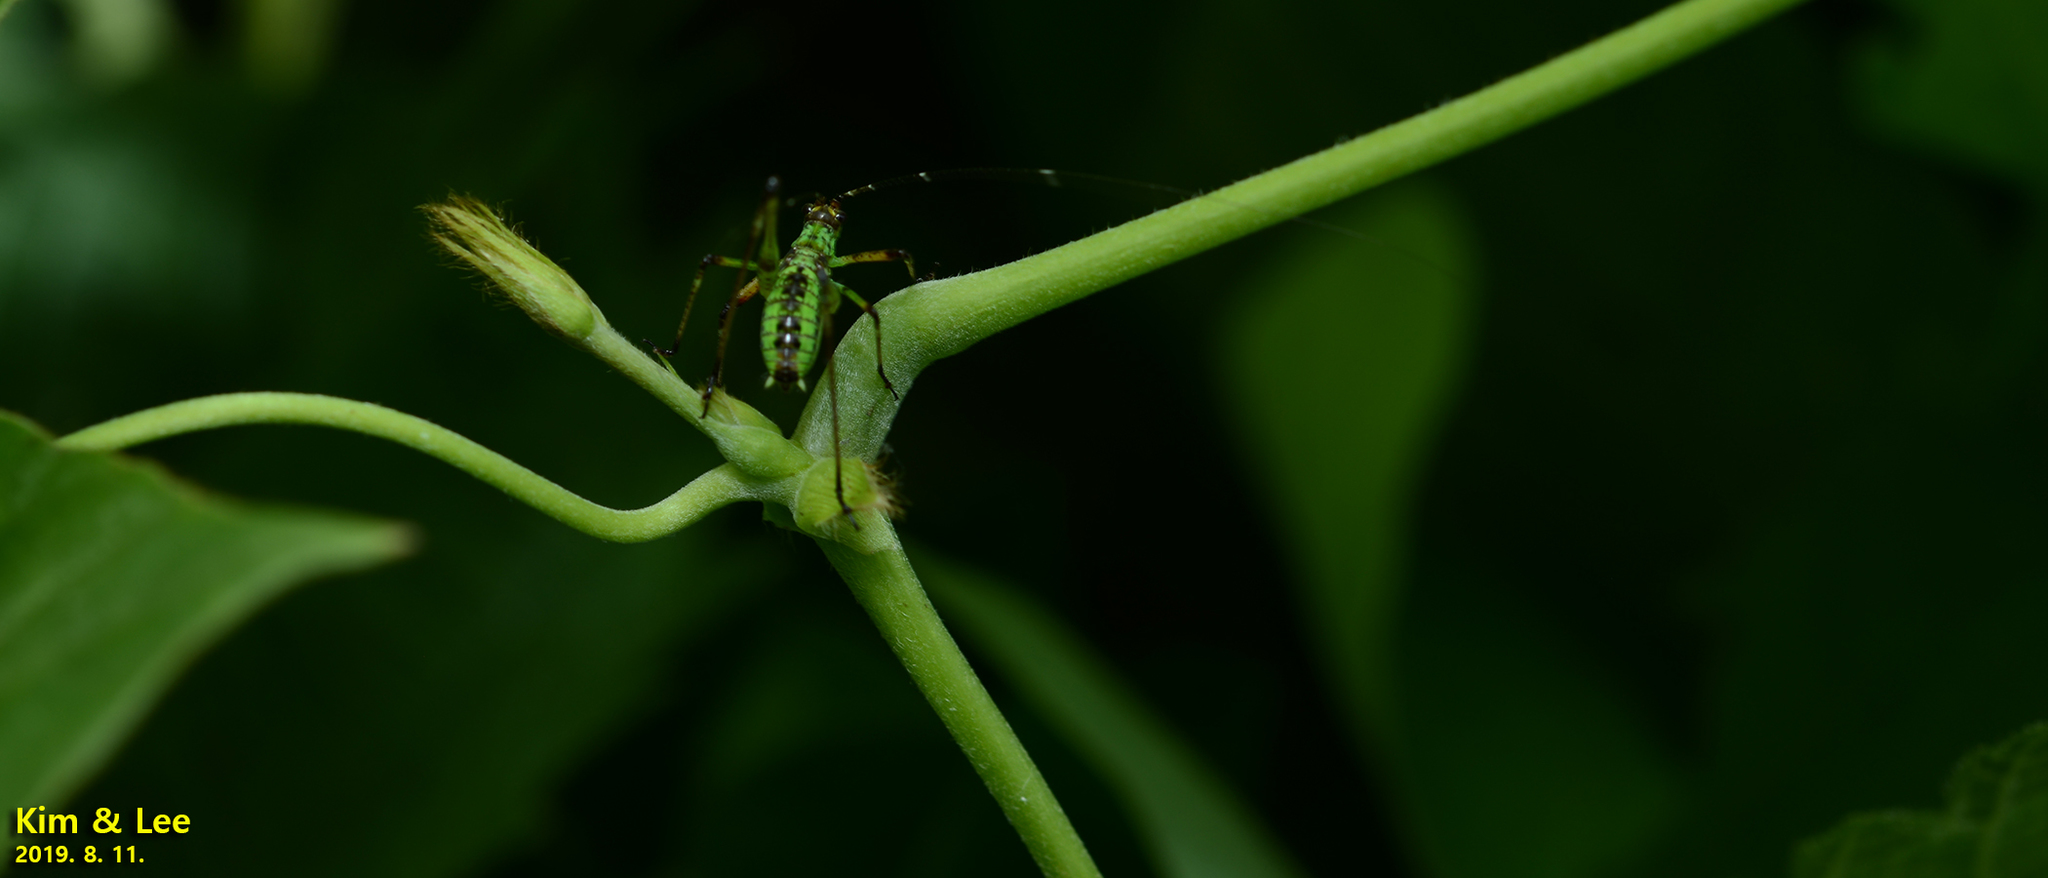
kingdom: Animalia
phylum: Arthropoda
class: Insecta
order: Orthoptera
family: Tettigoniidae
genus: Phaneroptera
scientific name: Phaneroptera nigroantennata
